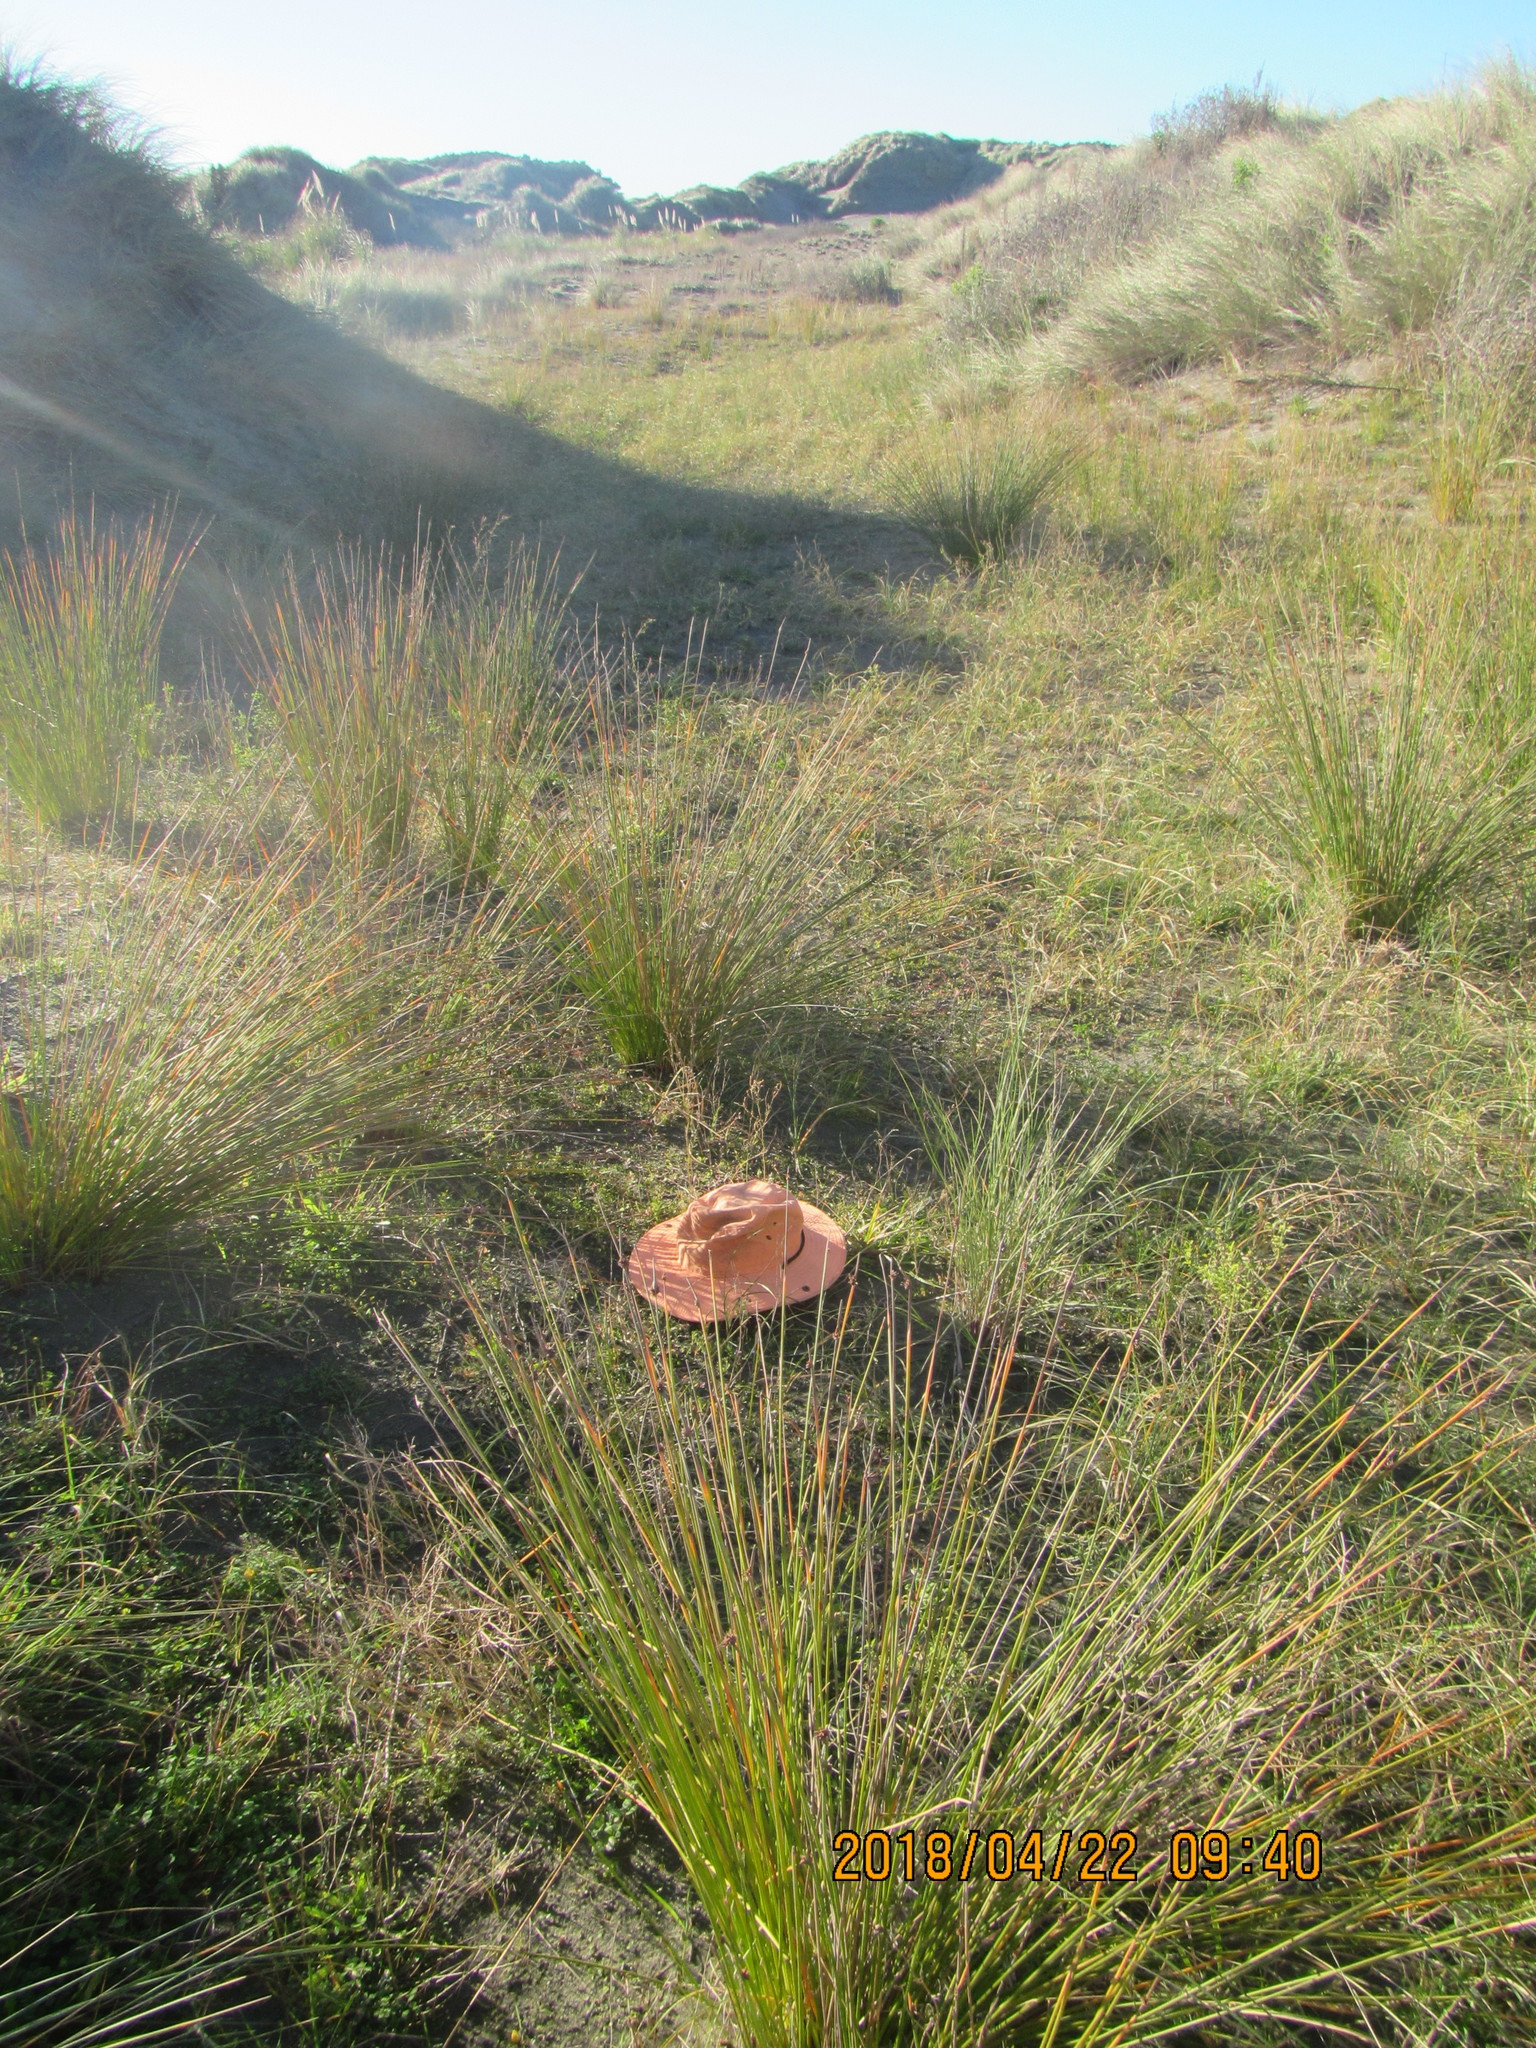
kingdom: Plantae
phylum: Tracheophyta
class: Magnoliopsida
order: Asterales
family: Campanulaceae
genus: Lobelia
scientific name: Lobelia anceps
